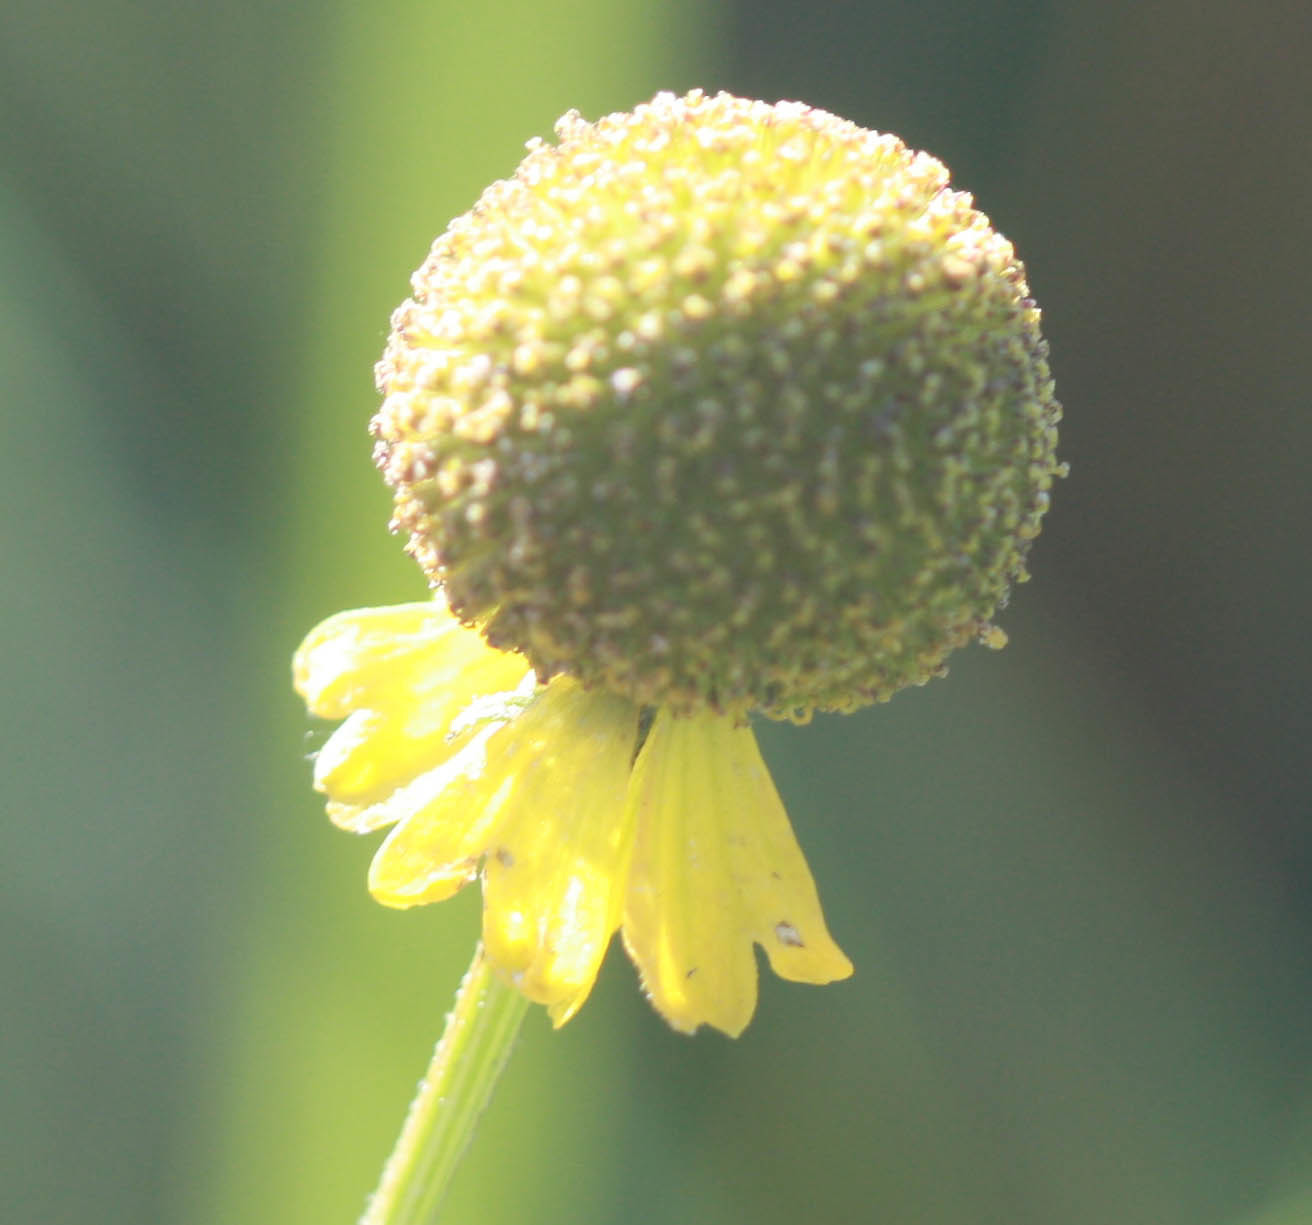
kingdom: Plantae
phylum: Tracheophyta
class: Magnoliopsida
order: Asterales
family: Asteraceae
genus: Helenium
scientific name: Helenium puberulum
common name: Sneezewort
